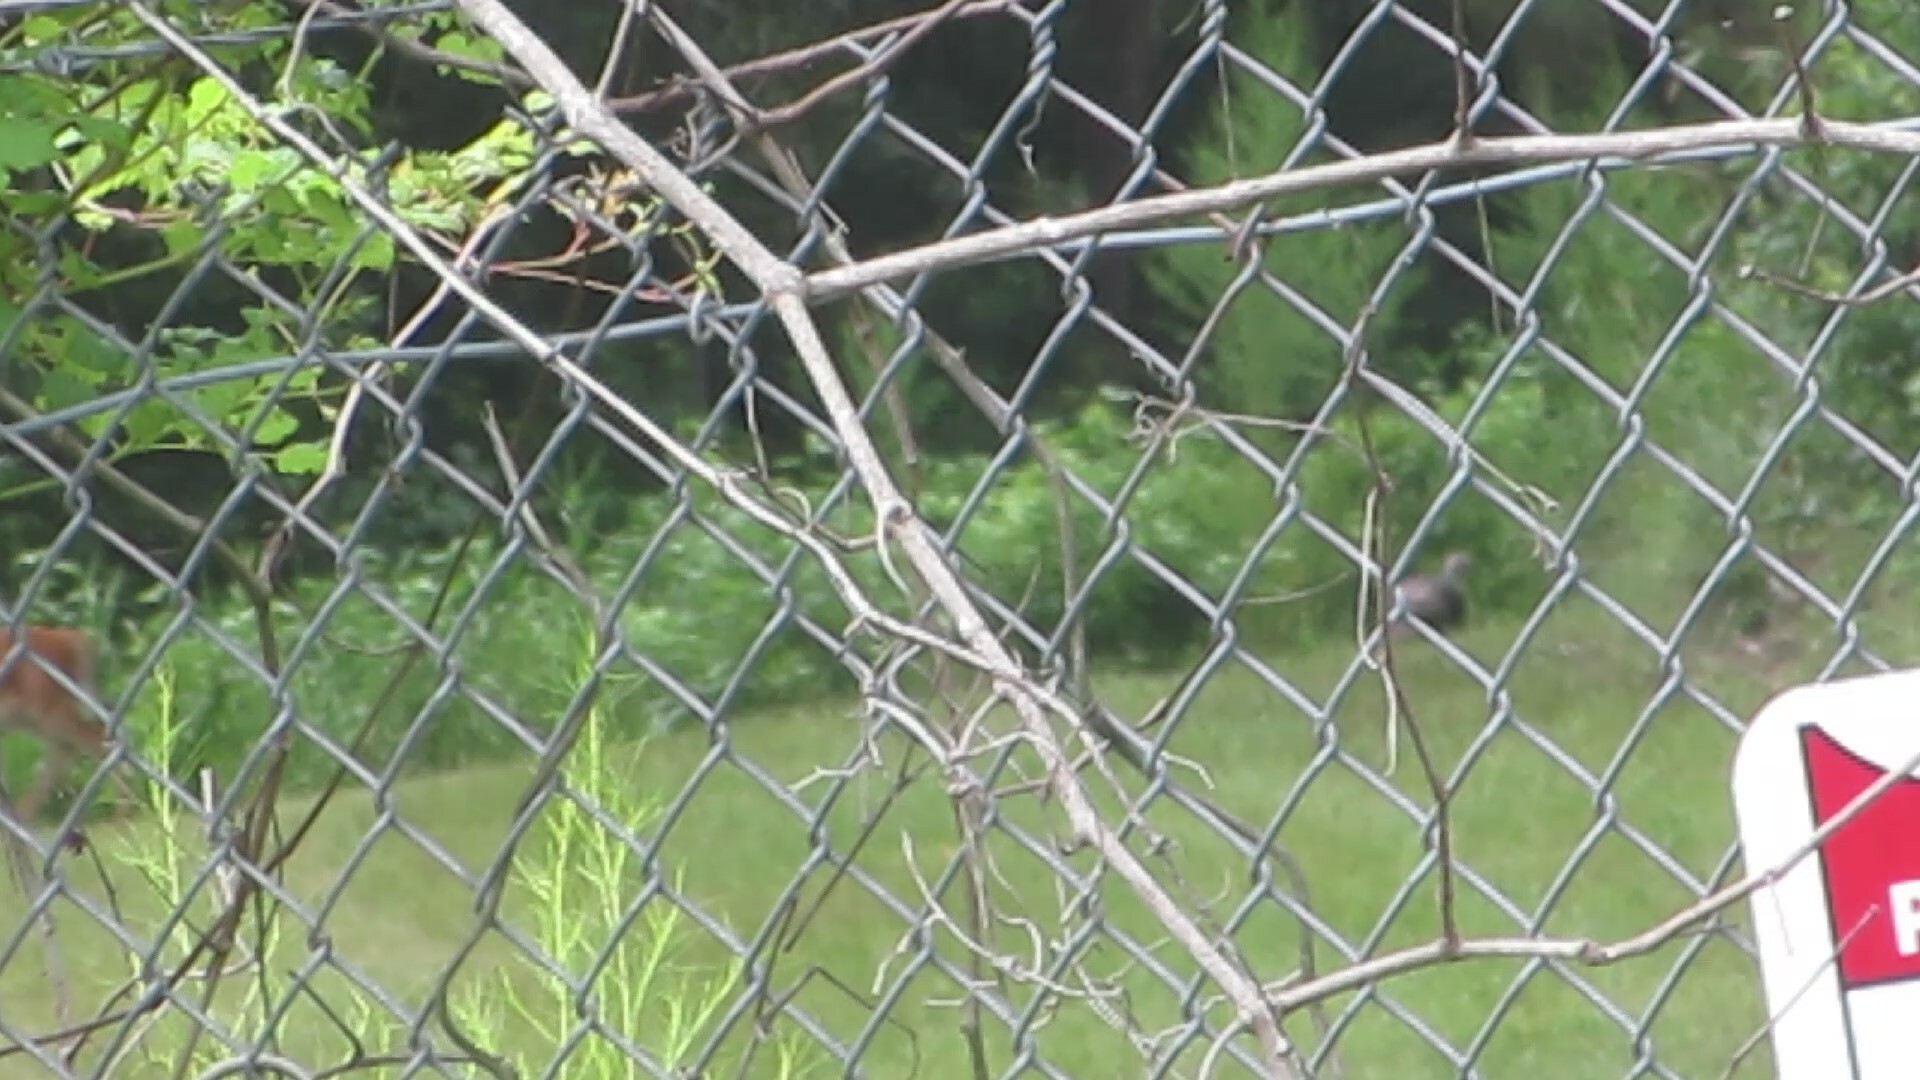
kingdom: Animalia
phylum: Chordata
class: Mammalia
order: Artiodactyla
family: Cervidae
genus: Odocoileus
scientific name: Odocoileus virginianus
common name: White-tailed deer
